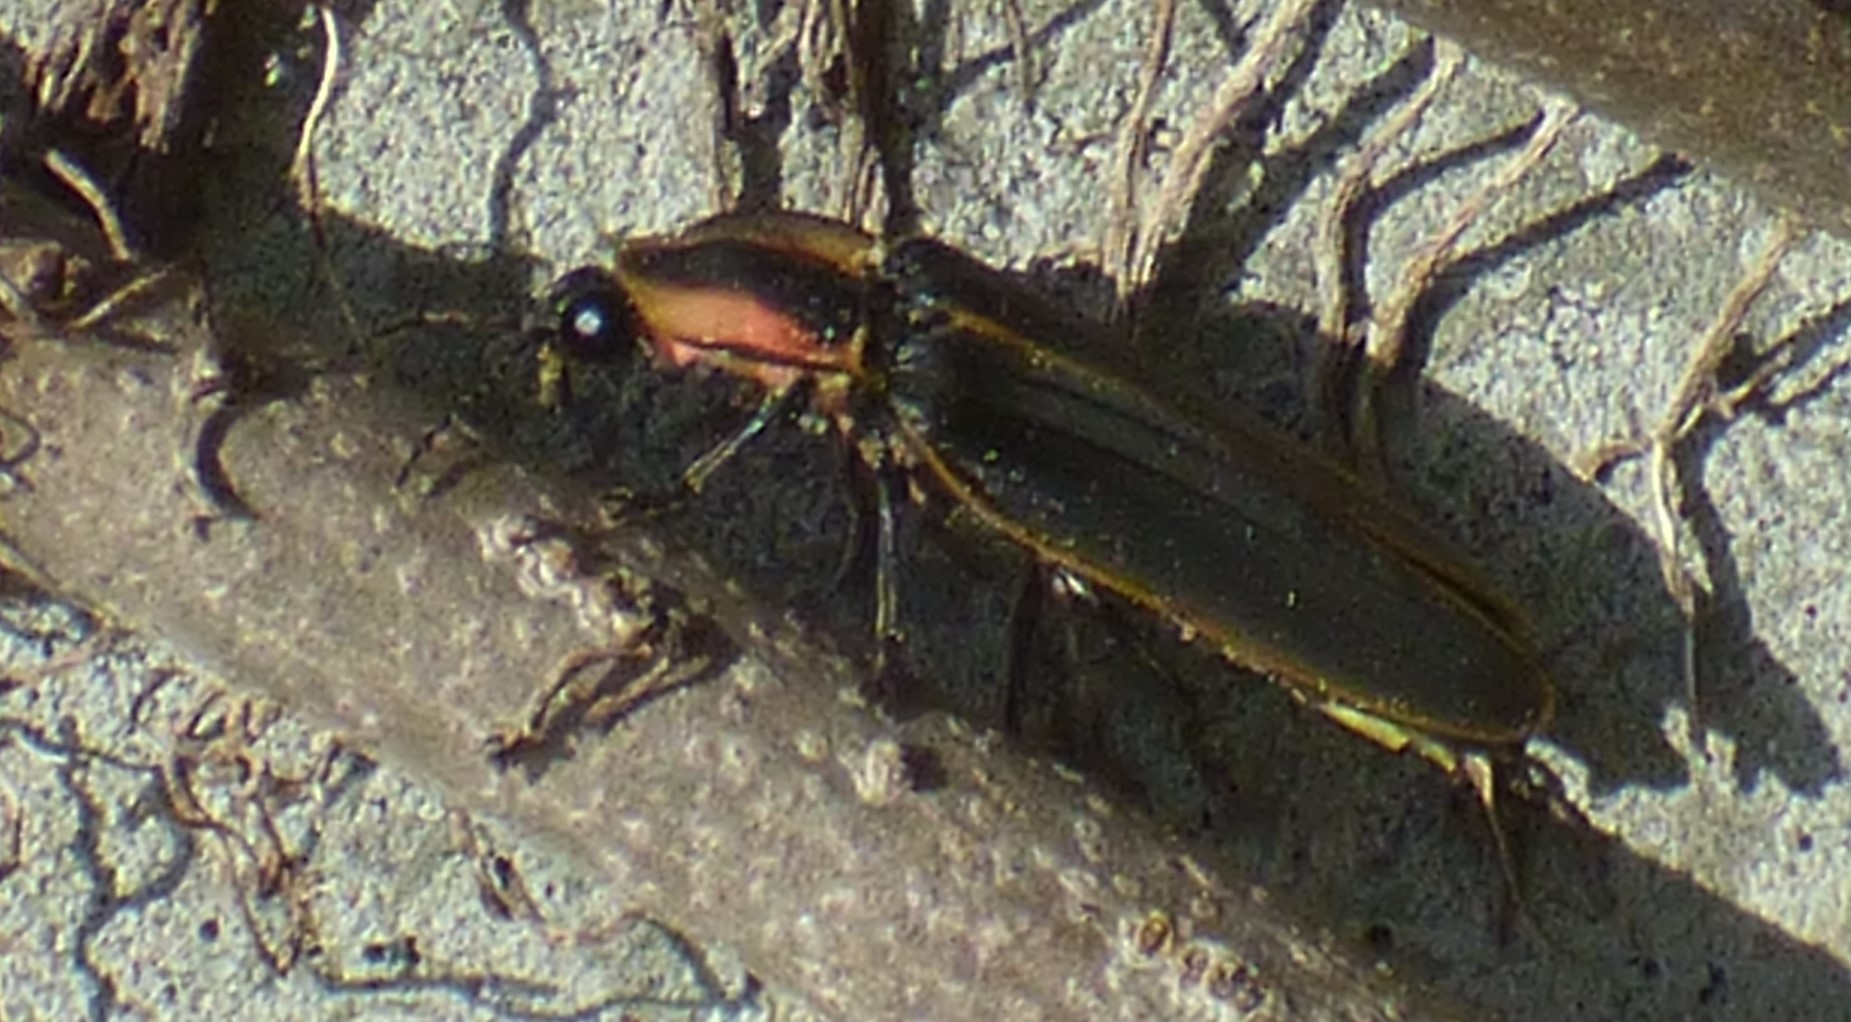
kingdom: Animalia
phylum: Arthropoda
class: Insecta
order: Coleoptera
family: Lampyridae
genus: Pyractomena
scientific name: Pyractomena borealis
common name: Northern firefly
